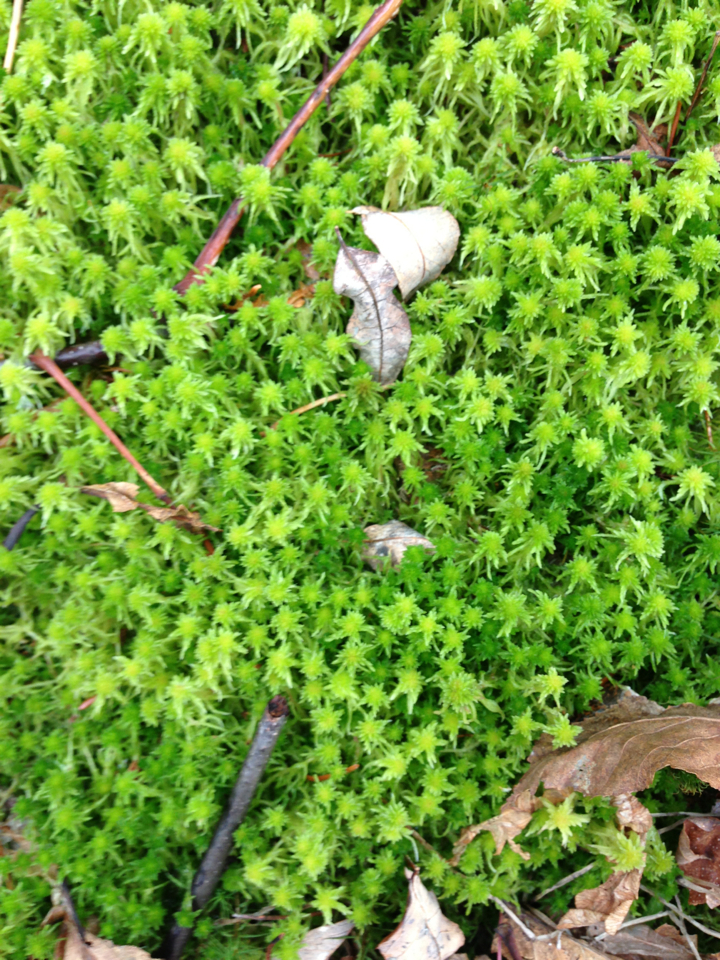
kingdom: Plantae
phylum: Bryophyta
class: Sphagnopsida
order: Sphagnales
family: Sphagnaceae
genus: Sphagnum
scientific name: Sphagnum
